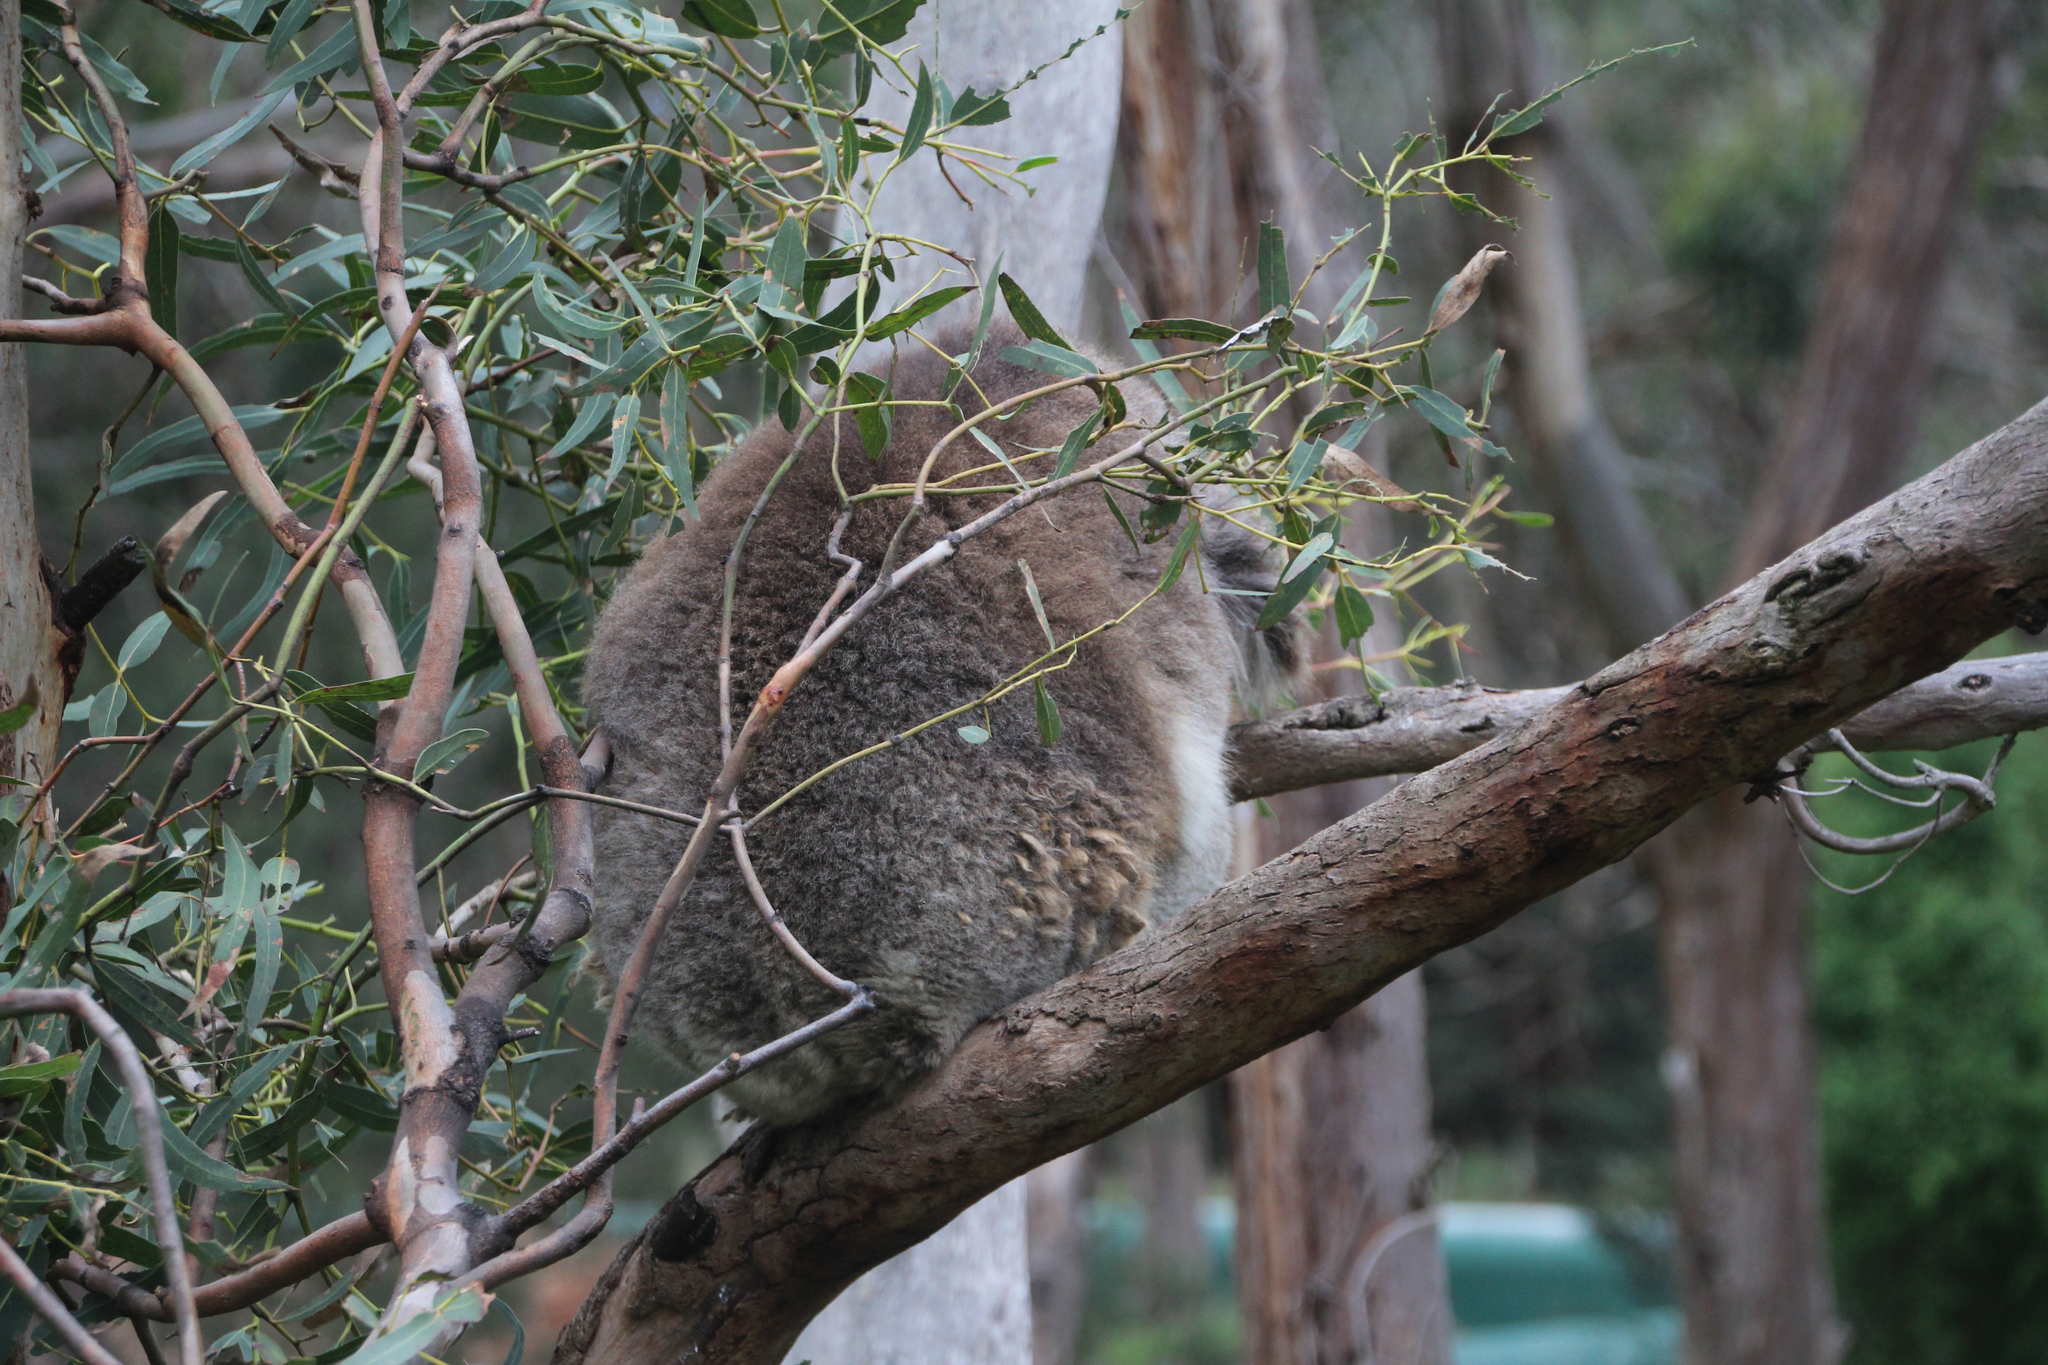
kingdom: Animalia
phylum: Chordata
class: Mammalia
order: Diprotodontia
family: Phascolarctidae
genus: Phascolarctos
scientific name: Phascolarctos cinereus
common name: Koala
